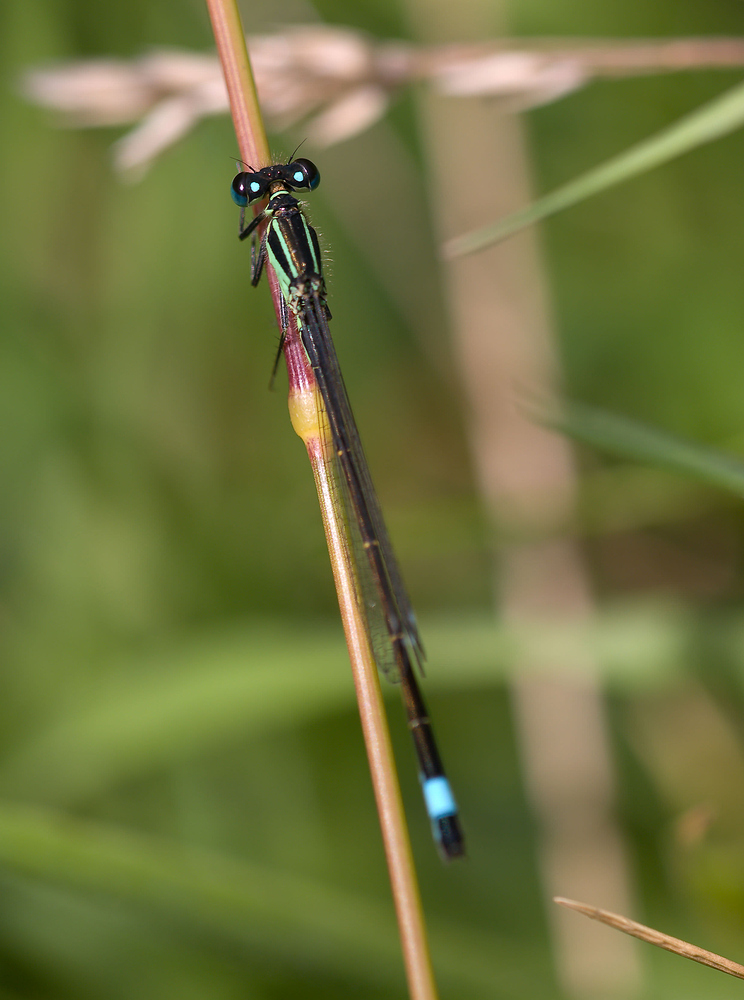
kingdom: Animalia
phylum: Arthropoda
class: Insecta
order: Odonata
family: Coenagrionidae
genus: Ischnura
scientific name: Ischnura elegans
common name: Blue-tailed damselfly
